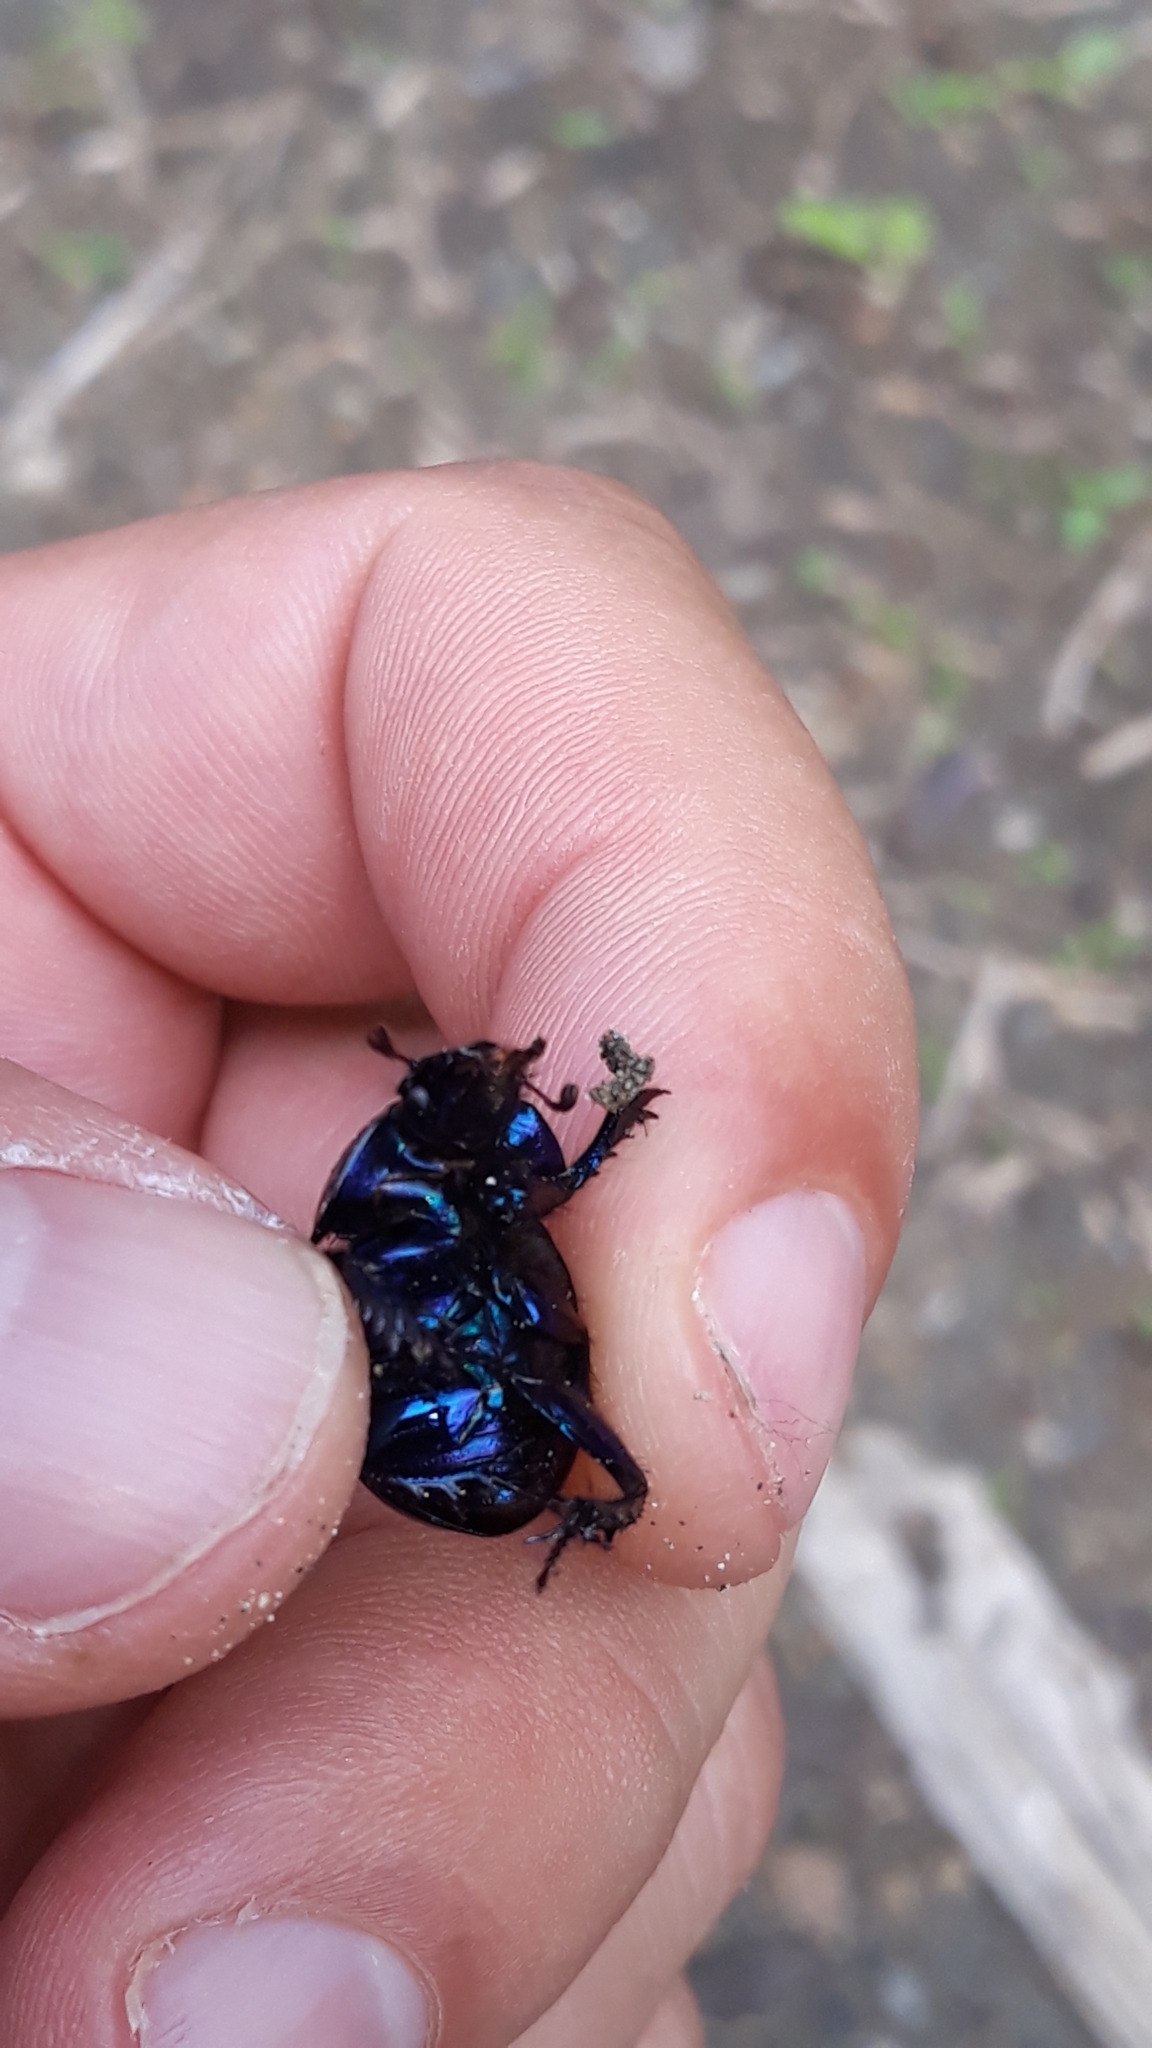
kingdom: Animalia
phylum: Arthropoda
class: Insecta
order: Coleoptera
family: Geotrupidae
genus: Anoplotrupes
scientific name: Anoplotrupes stercorosus
